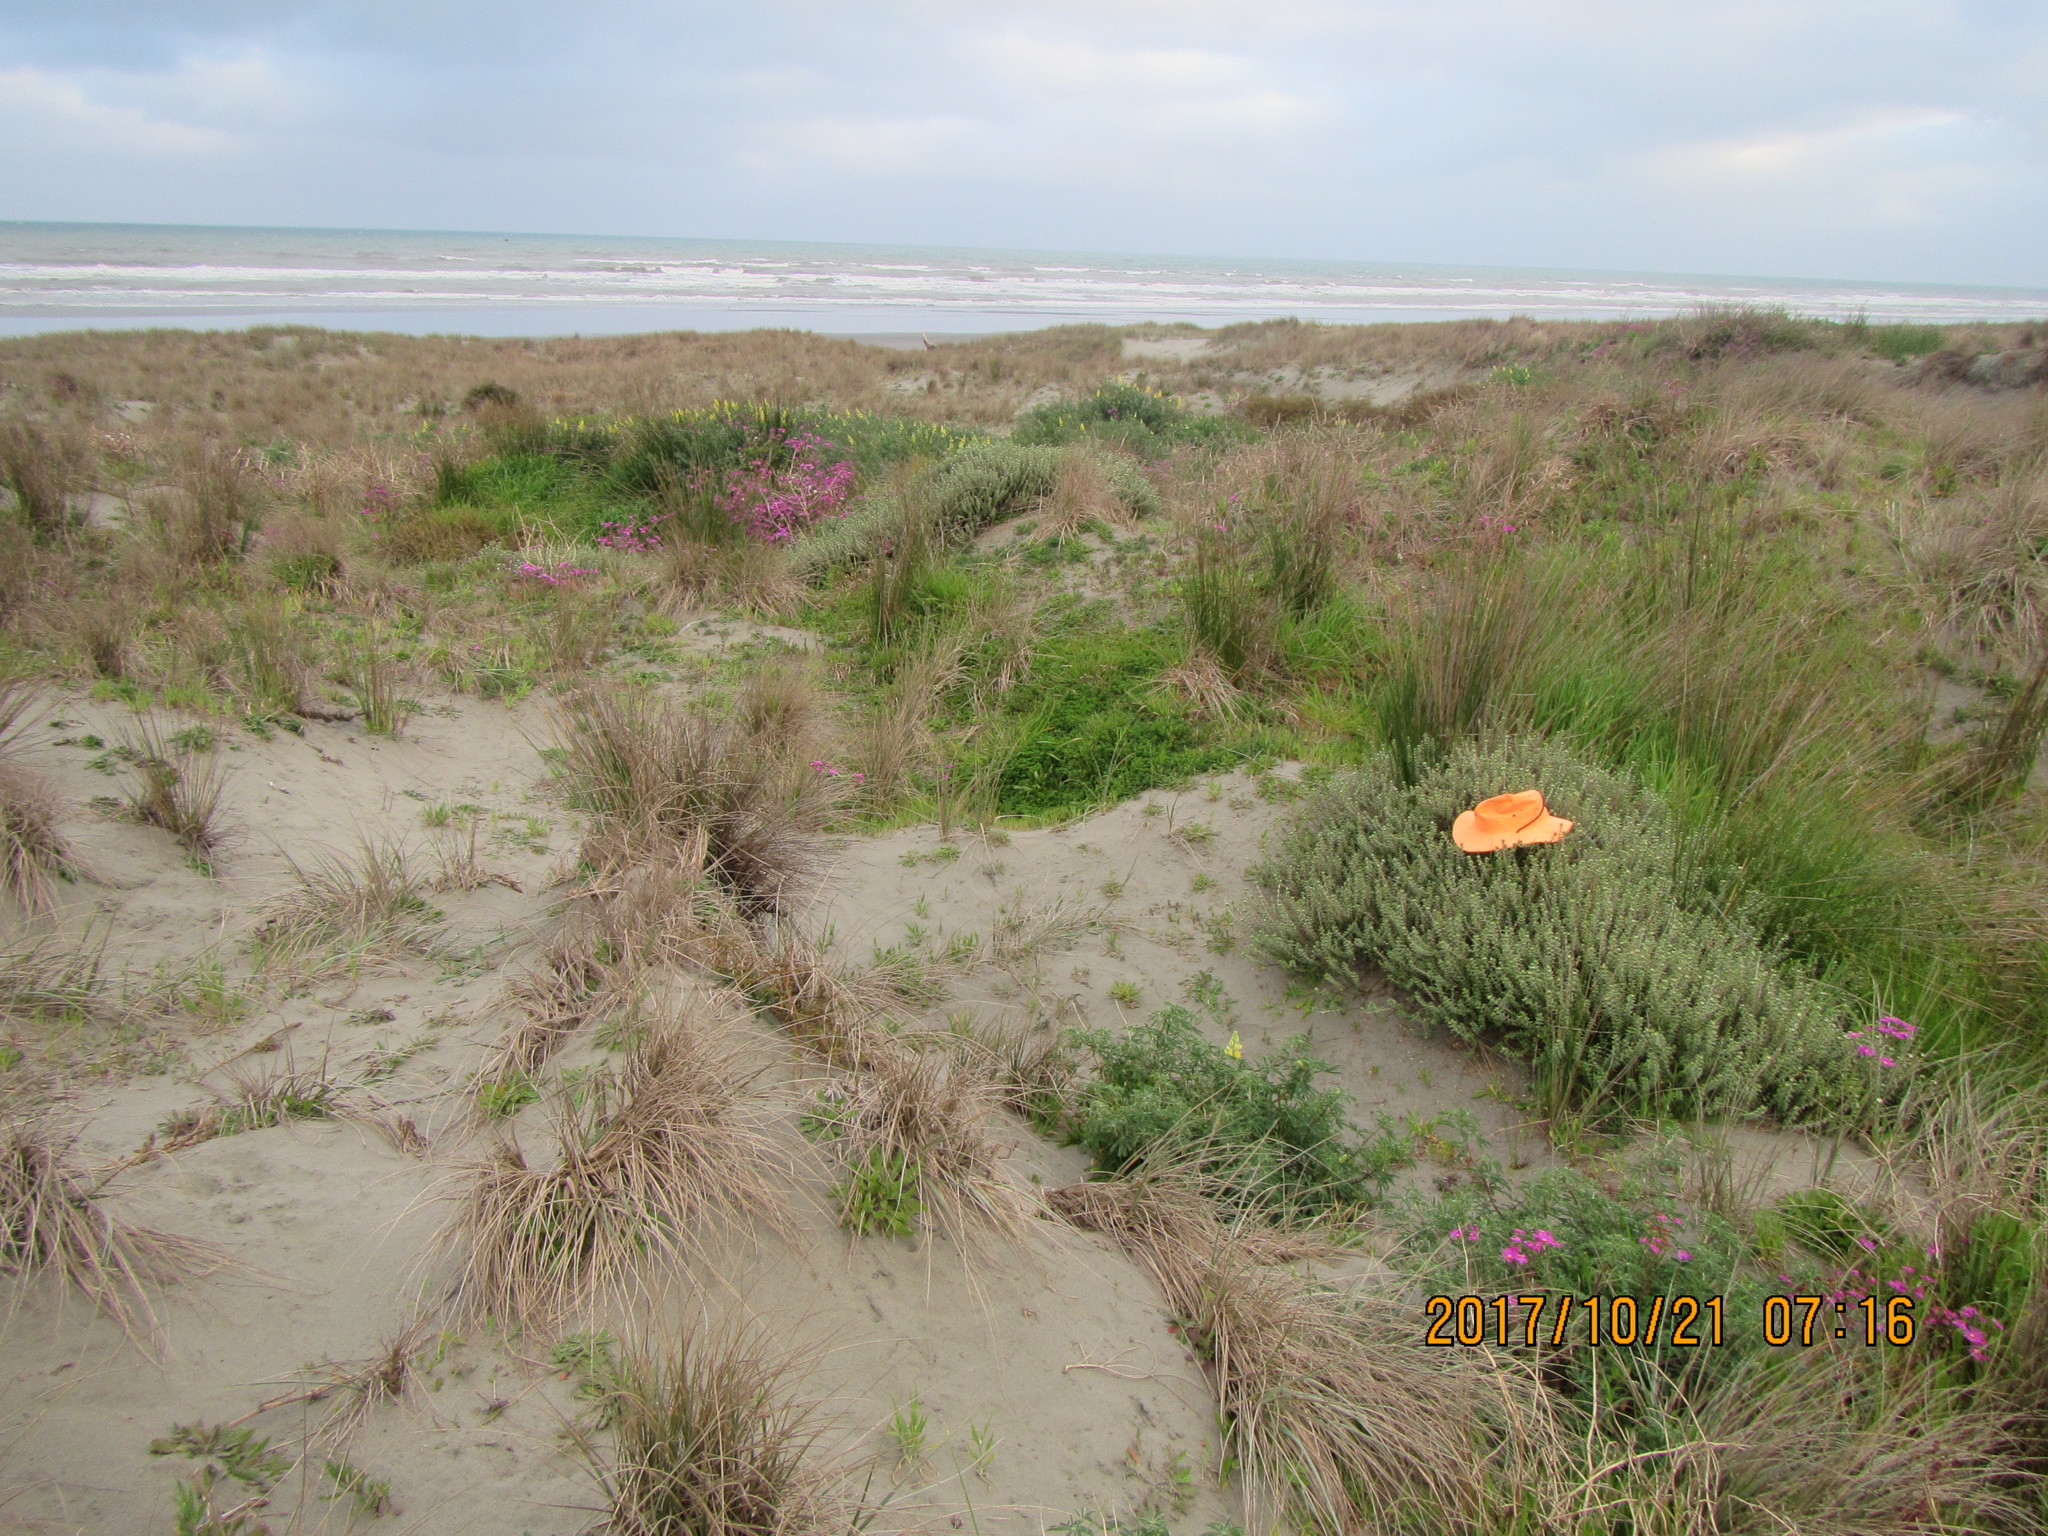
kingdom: Plantae
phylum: Tracheophyta
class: Magnoliopsida
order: Malvales
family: Thymelaeaceae
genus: Pimelea
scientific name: Pimelea villosa
